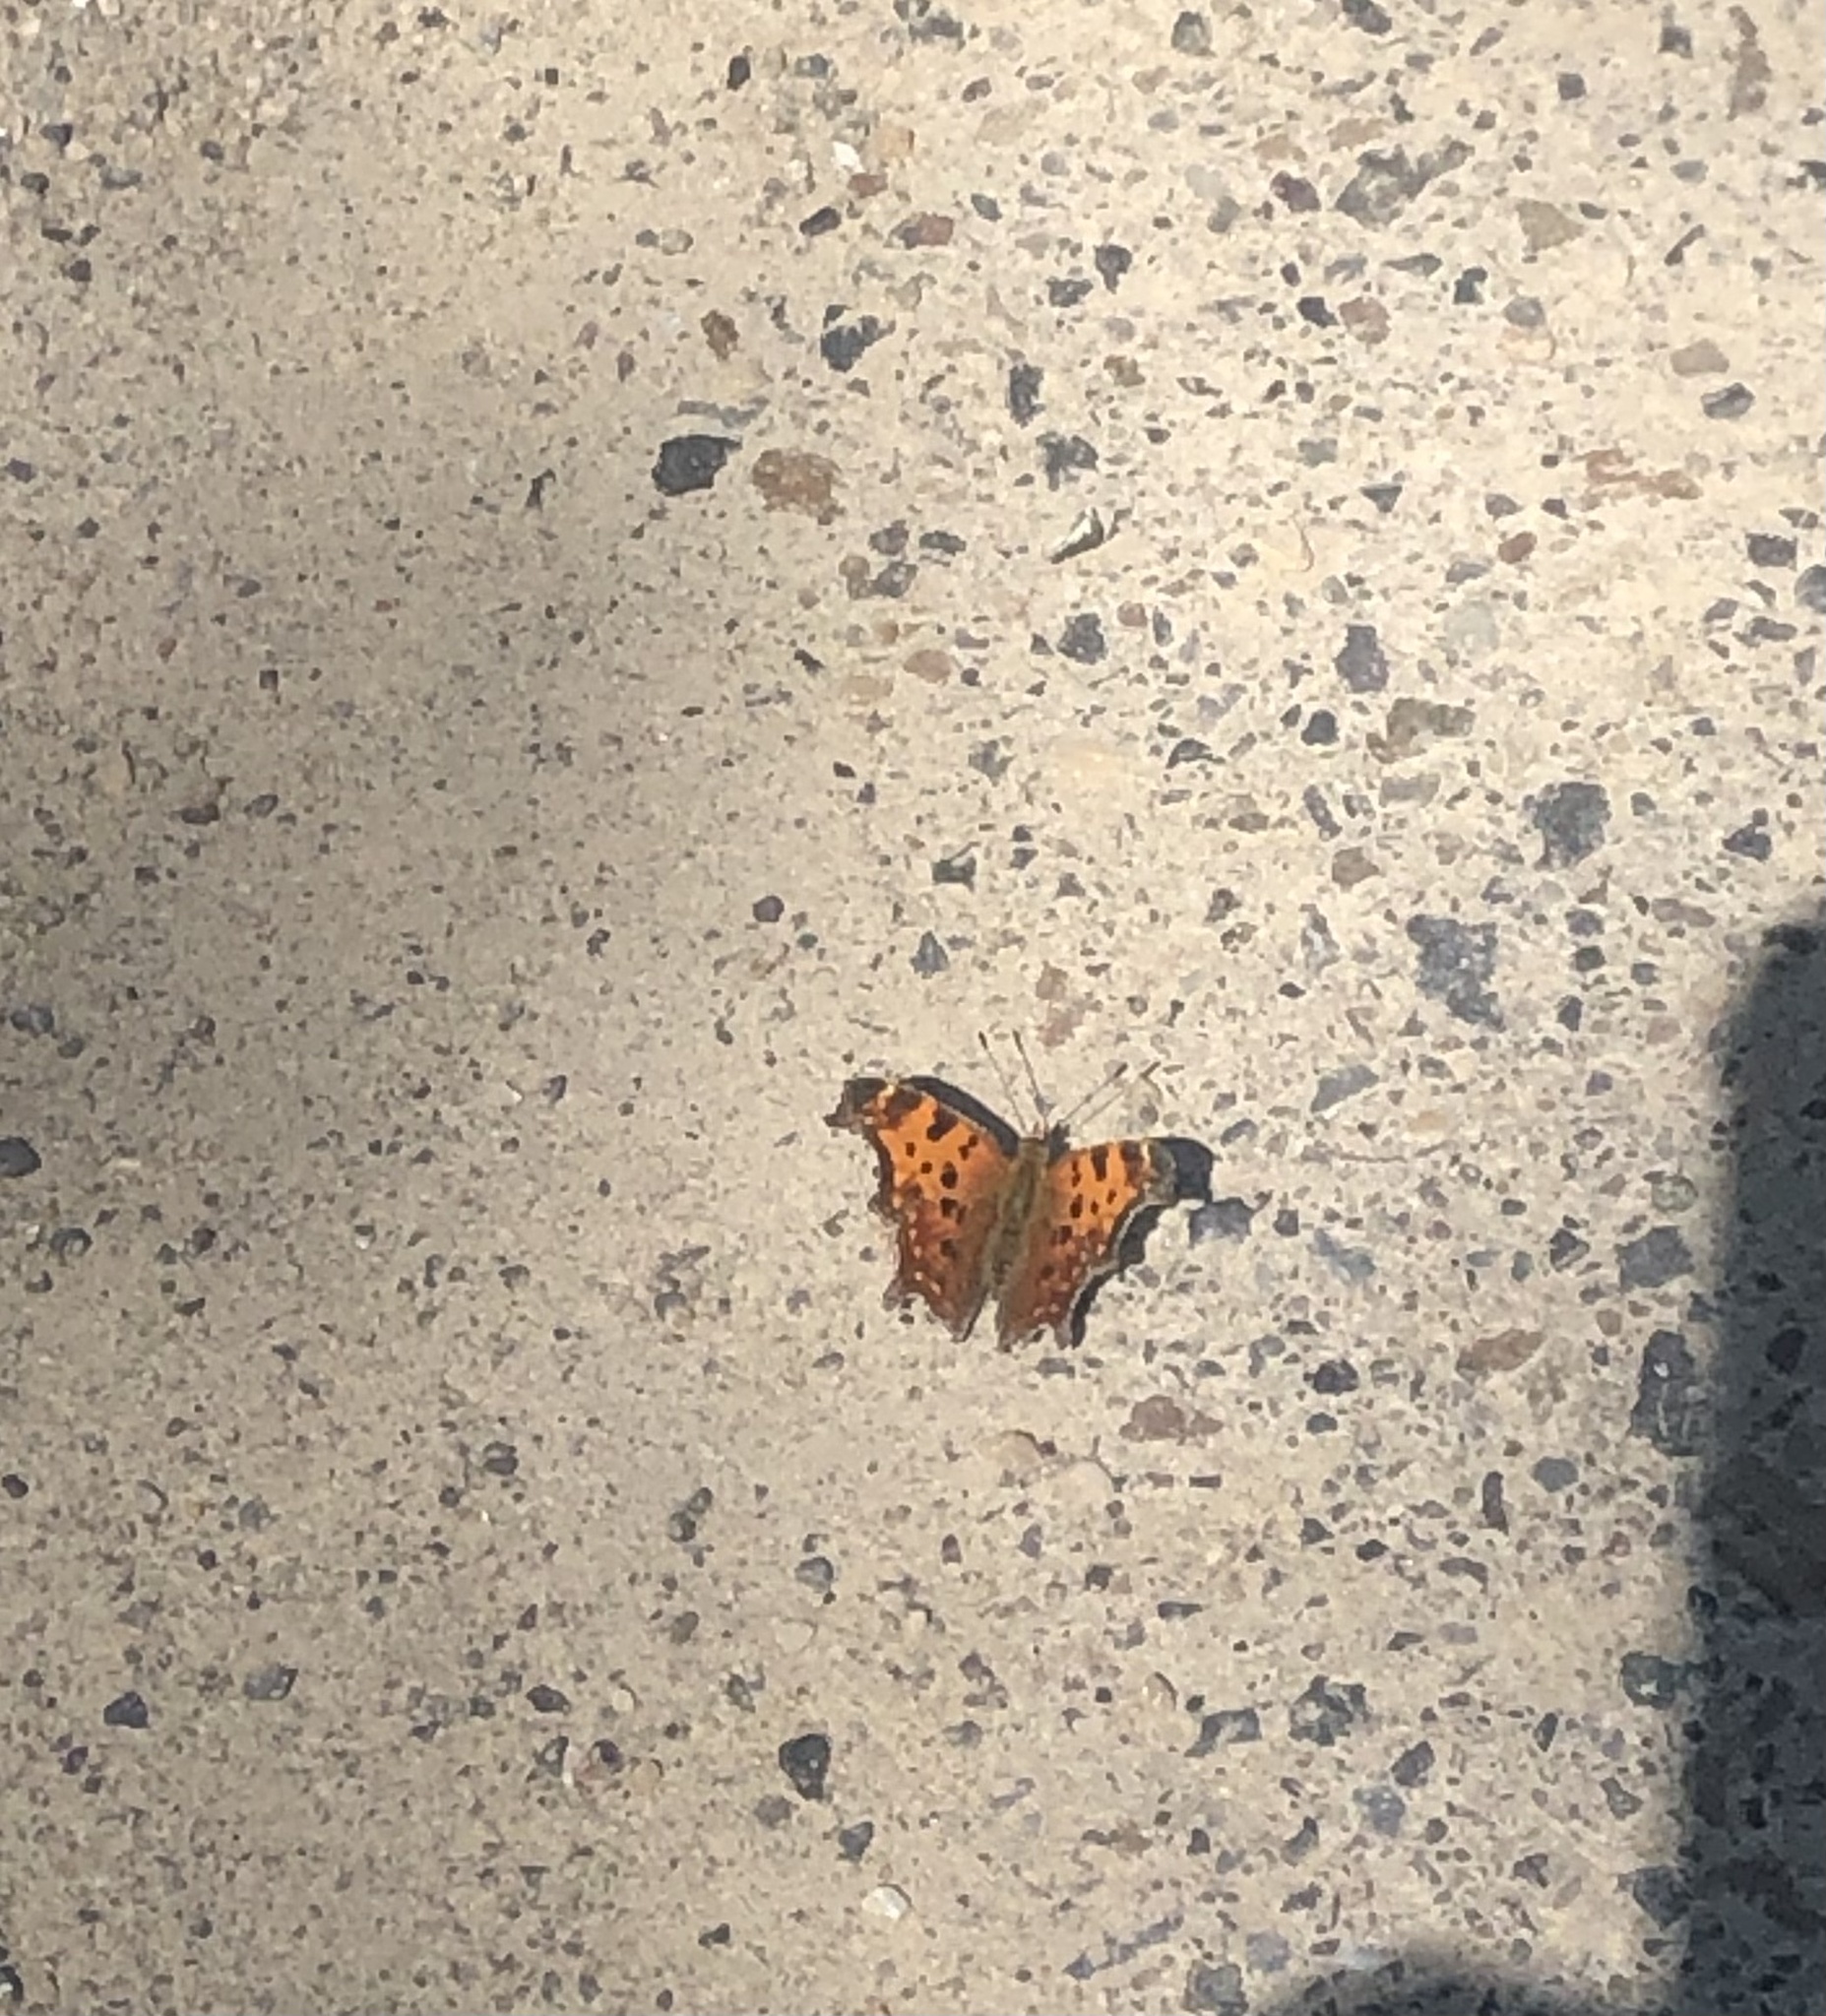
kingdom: Animalia
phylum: Arthropoda
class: Insecta
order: Lepidoptera
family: Nymphalidae
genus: Polygonia
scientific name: Polygonia comma
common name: Eastern comma
